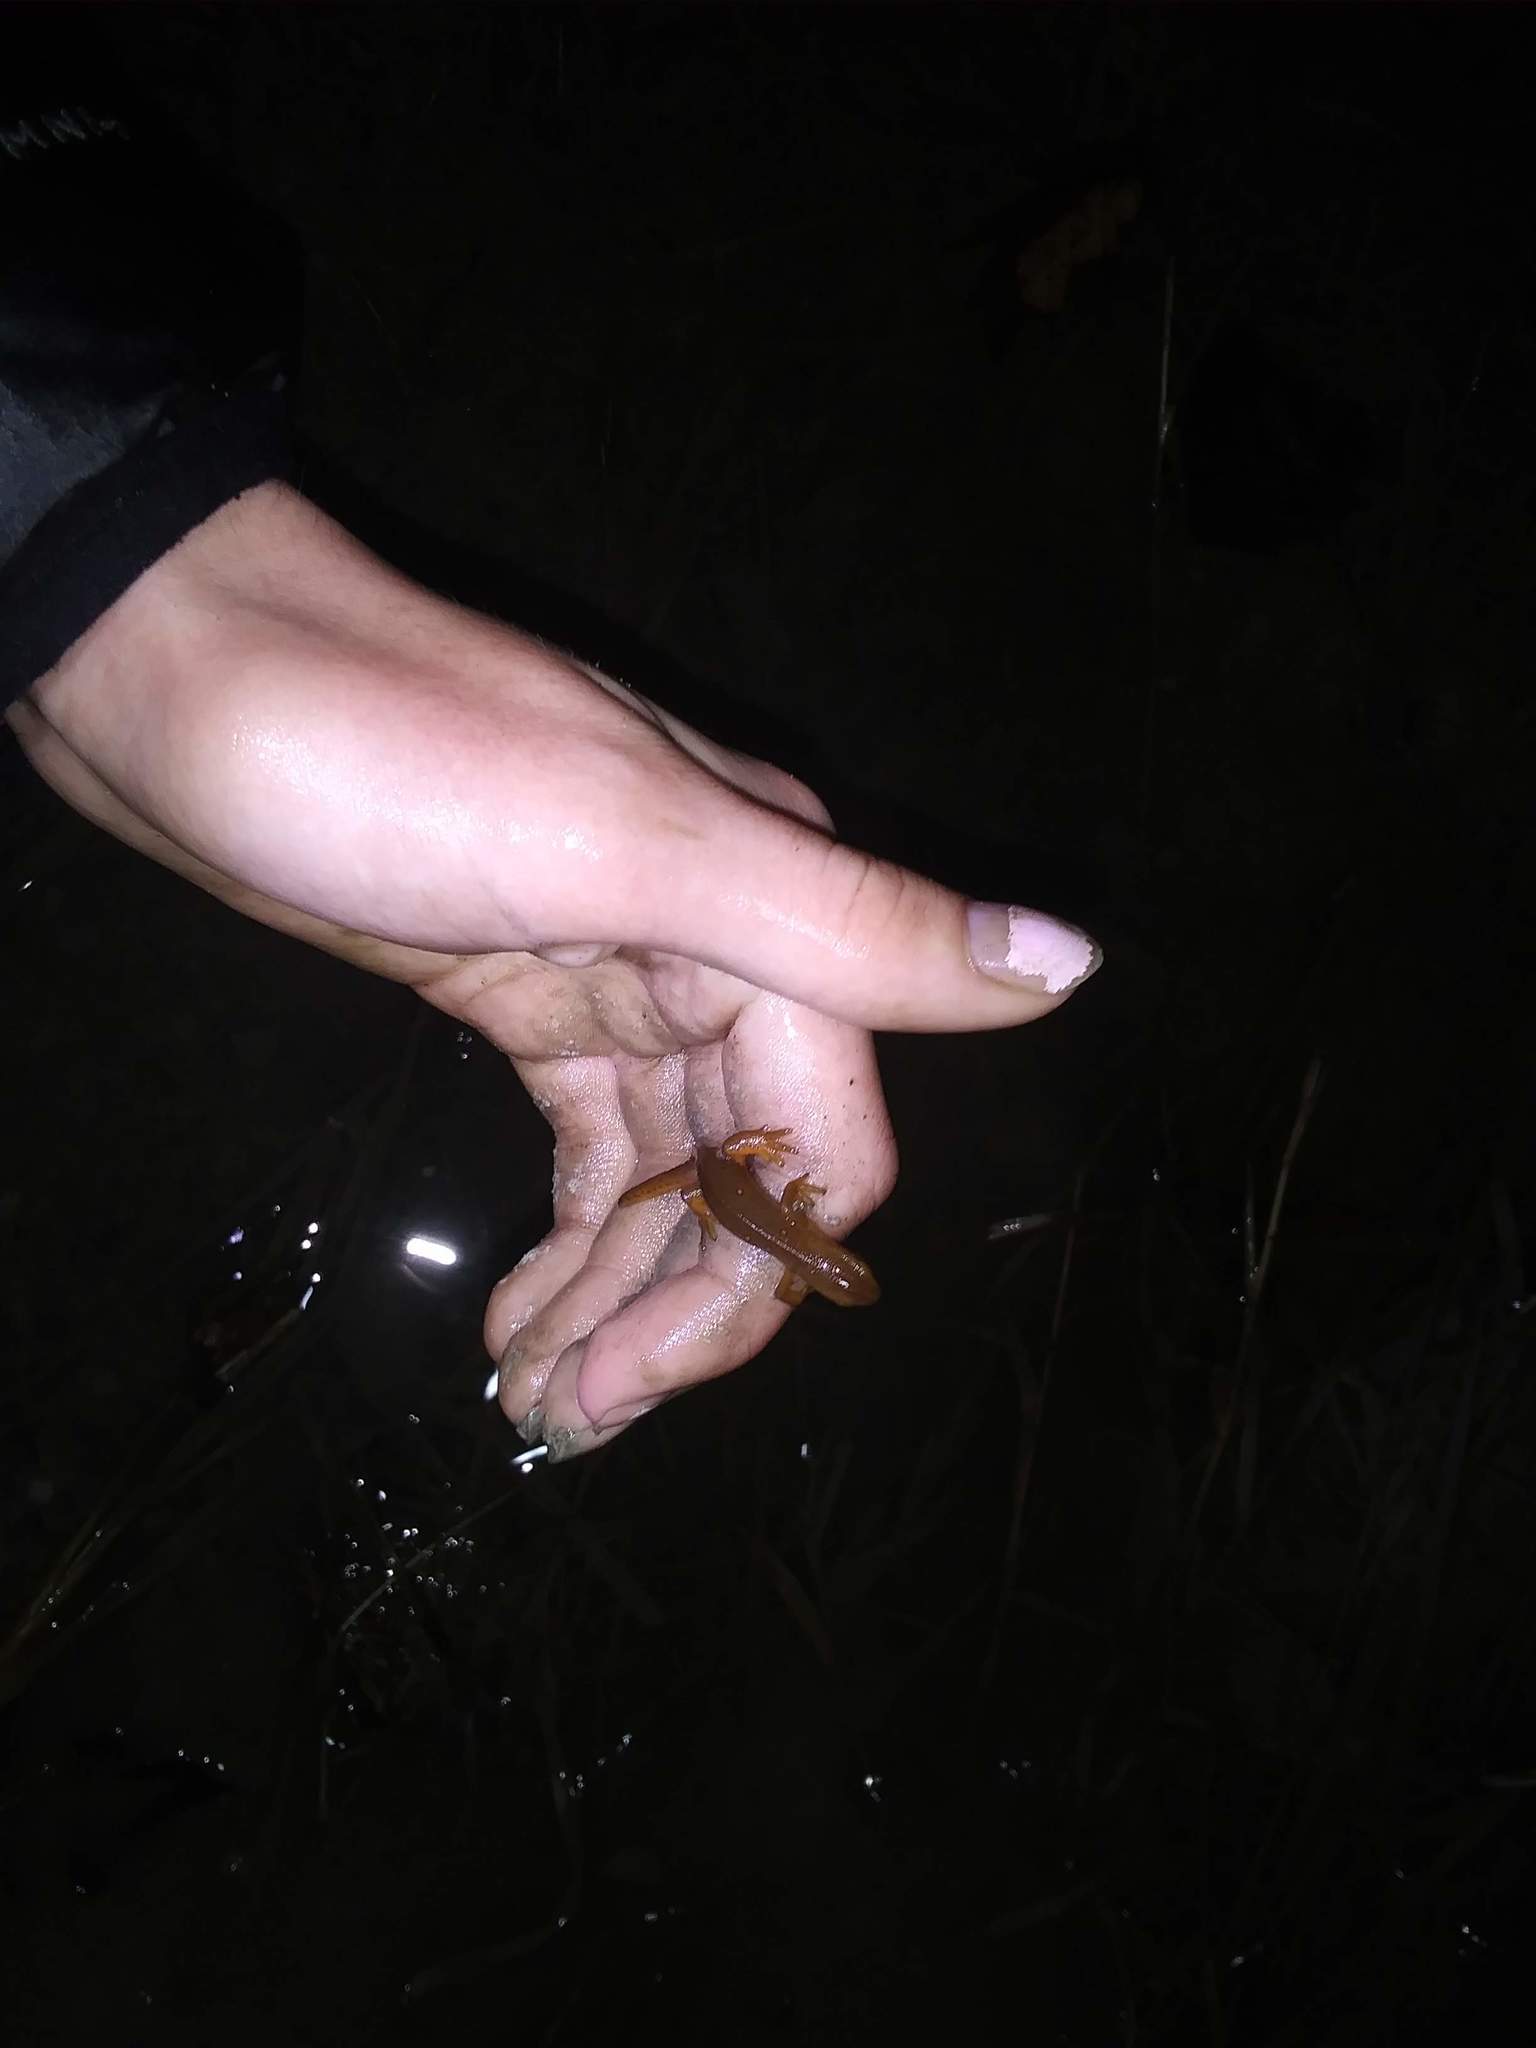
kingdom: Animalia
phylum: Chordata
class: Amphibia
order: Caudata
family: Salamandridae
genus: Notophthalmus
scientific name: Notophthalmus viridescens
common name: Eastern newt
